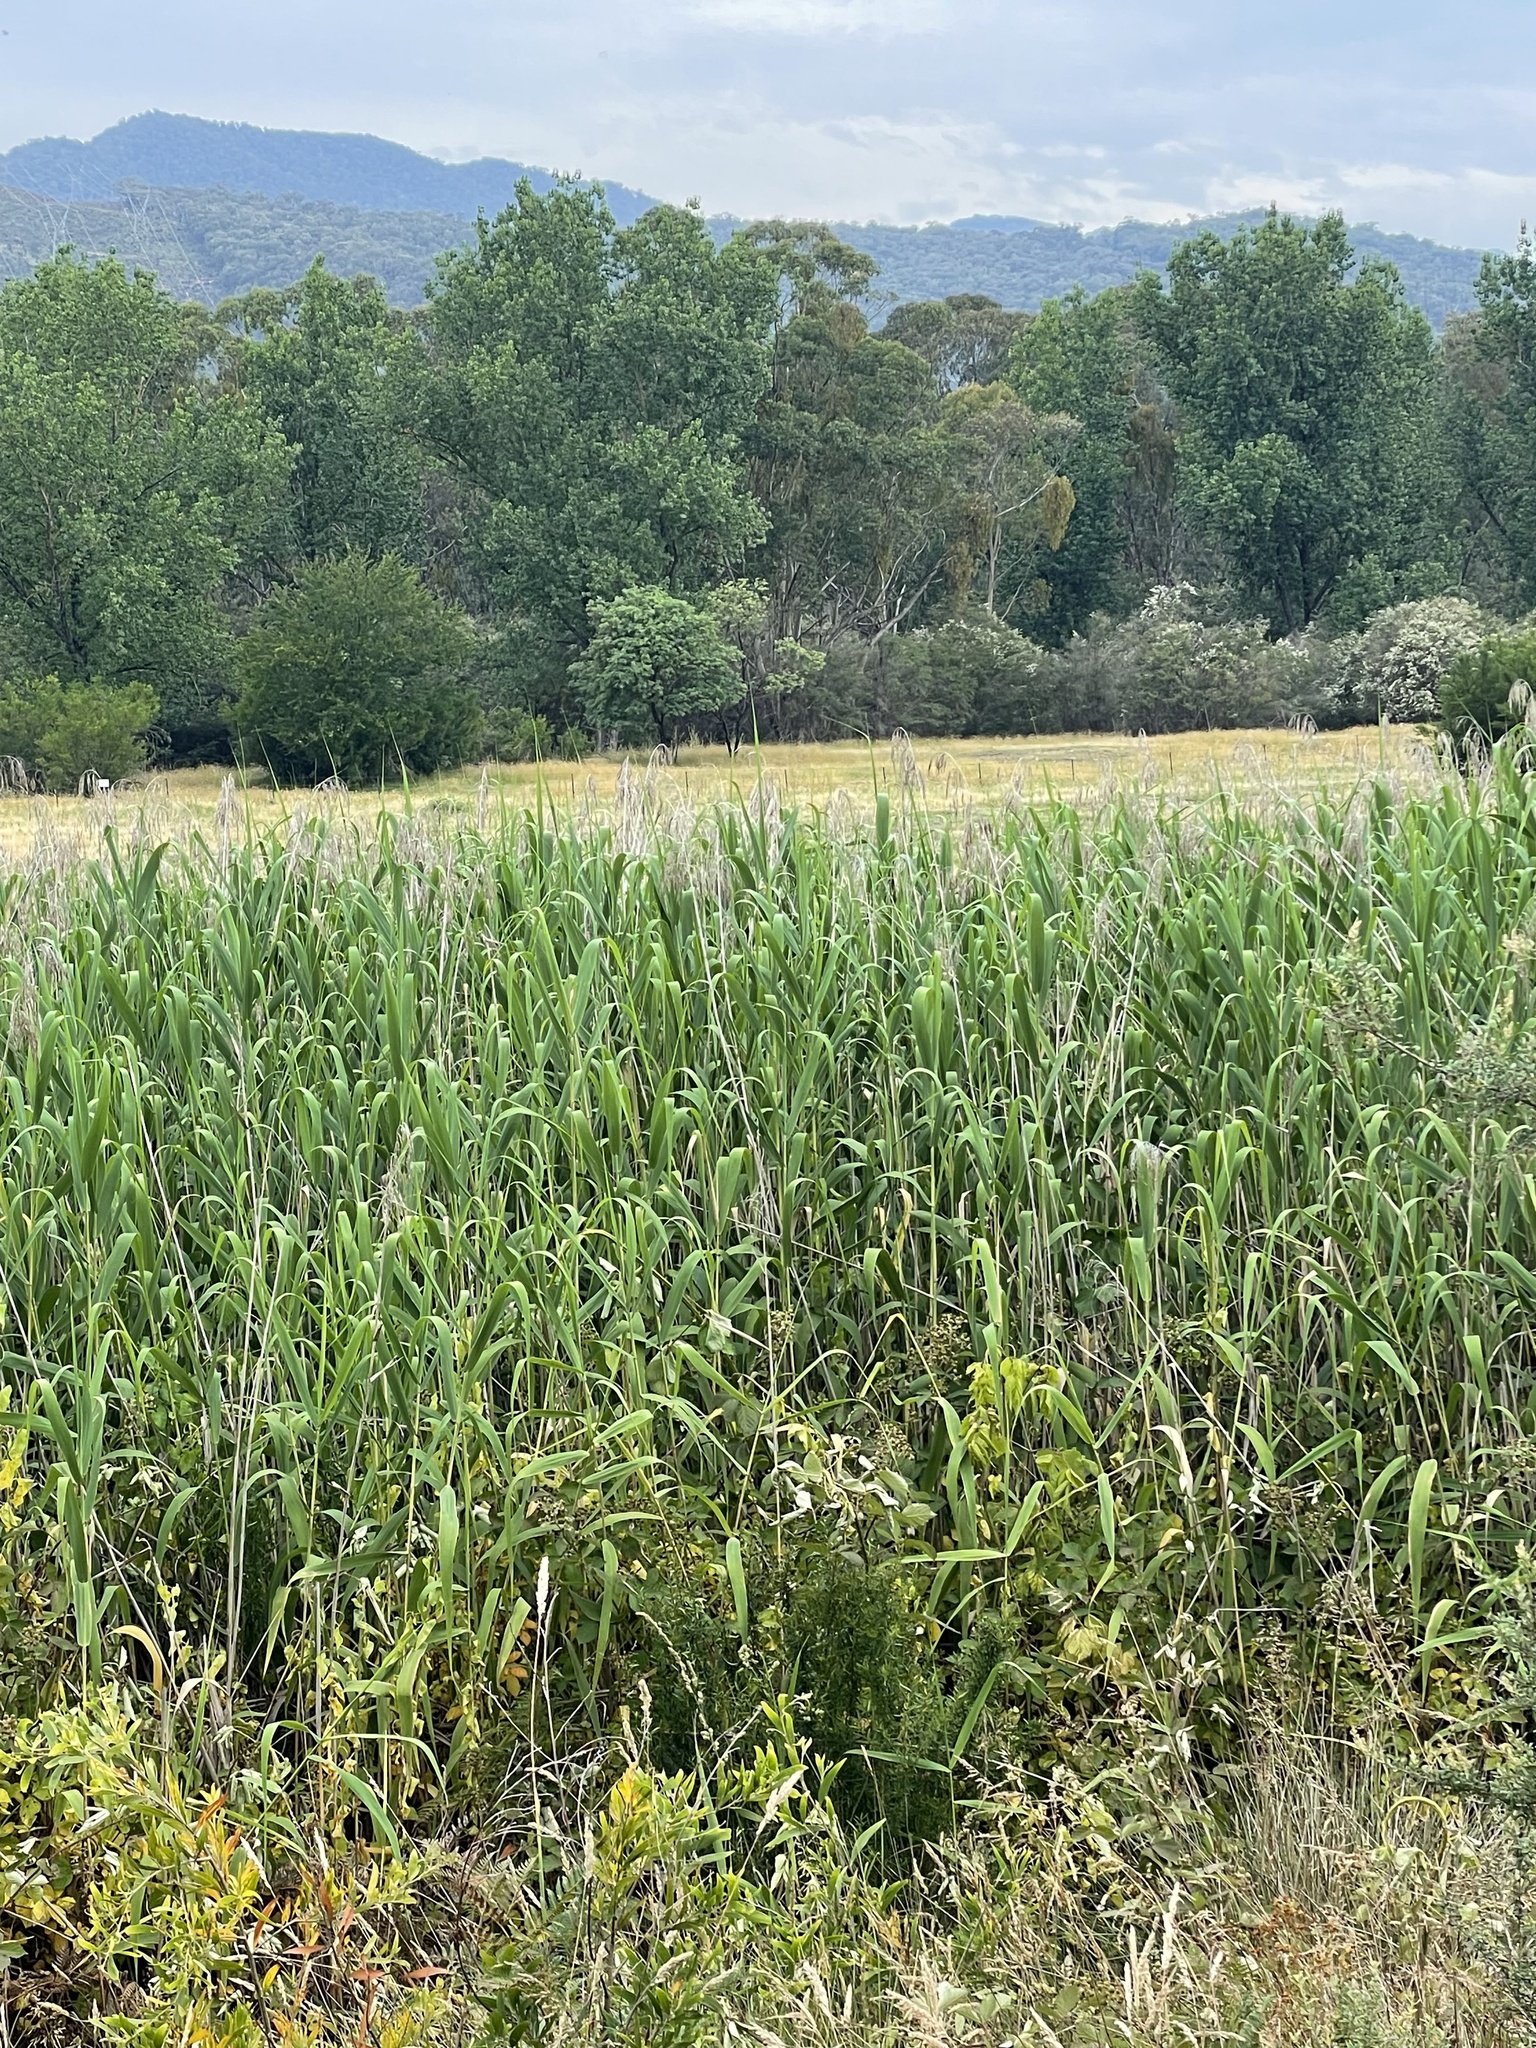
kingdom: Plantae
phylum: Tracheophyta
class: Liliopsida
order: Poales
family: Poaceae
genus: Phragmites
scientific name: Phragmites australis
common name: Common reed
